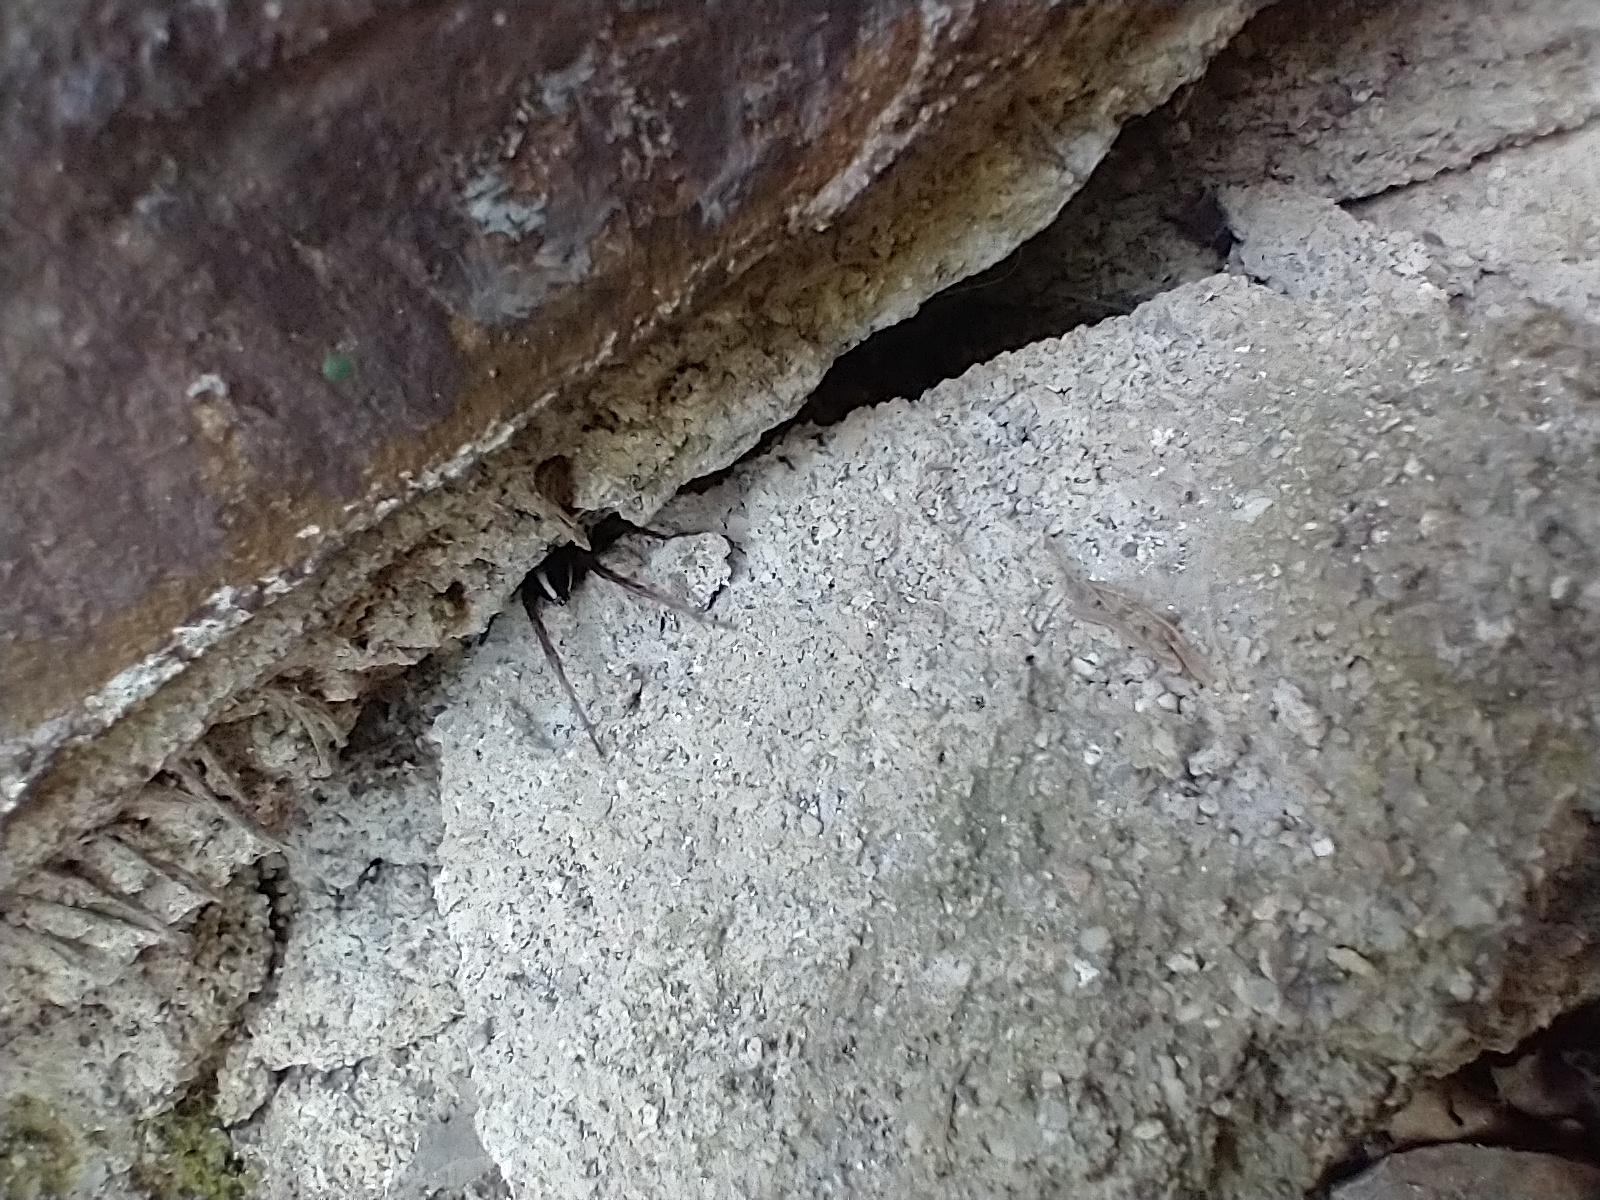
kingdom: Animalia
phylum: Arthropoda
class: Arachnida
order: Araneae
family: Lycosidae
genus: Alopecosa
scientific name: Alopecosa albofasciata
